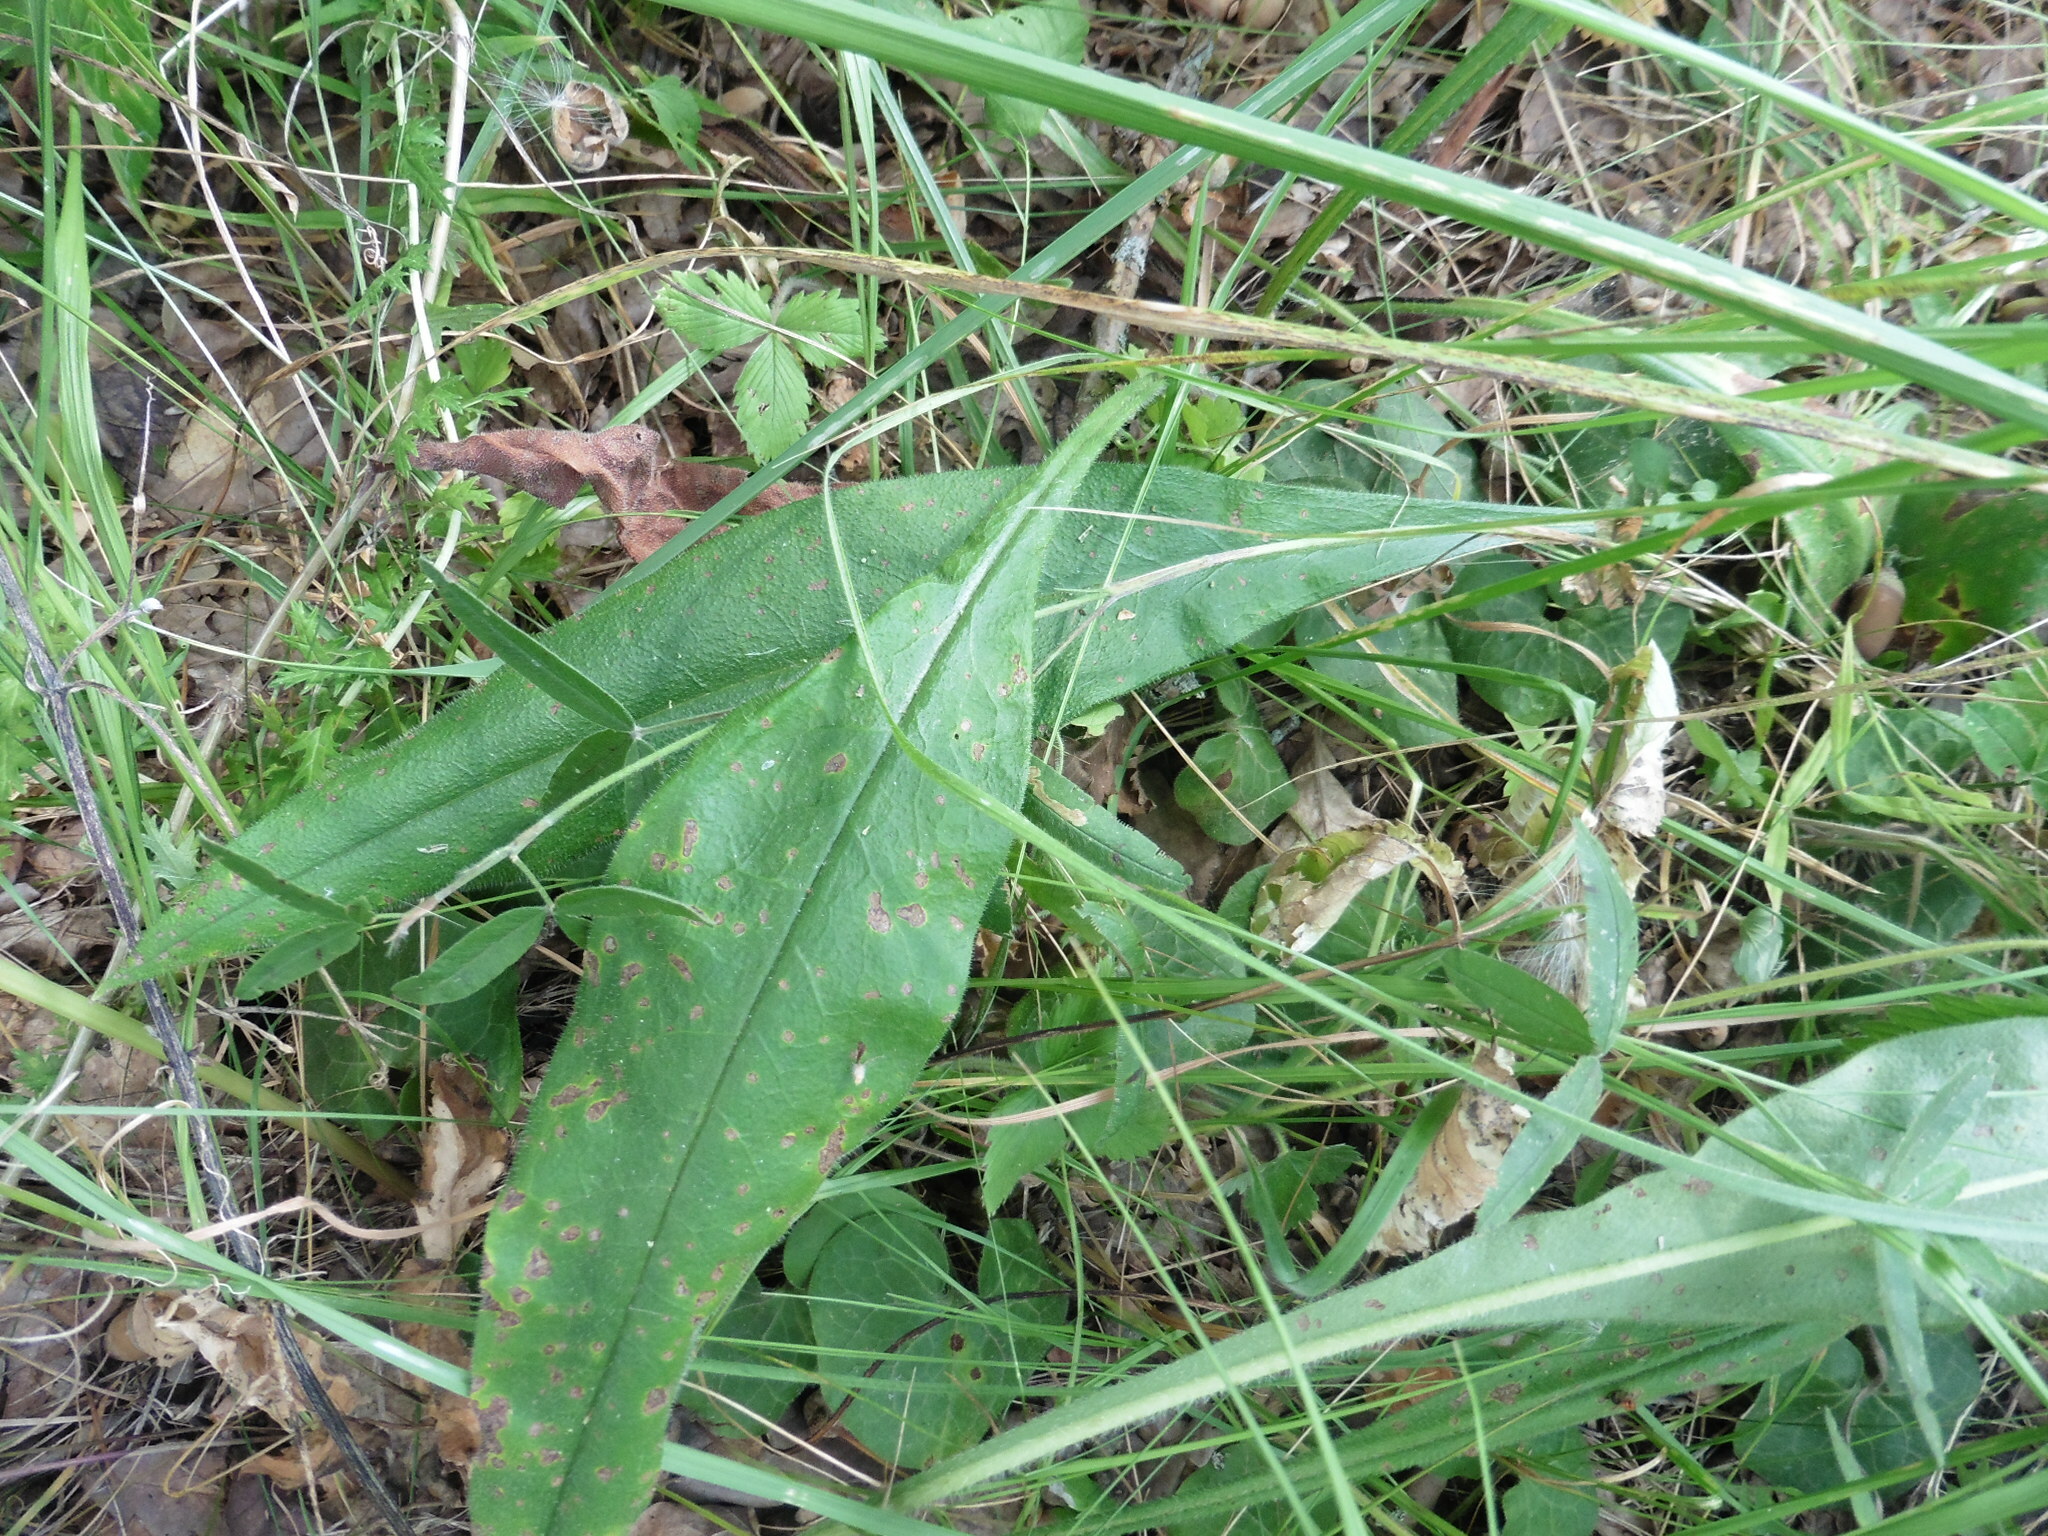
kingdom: Plantae
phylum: Tracheophyta
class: Magnoliopsida
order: Boraginales
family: Boraginaceae
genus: Pulmonaria
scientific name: Pulmonaria angustifolia
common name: Blue cowslip
